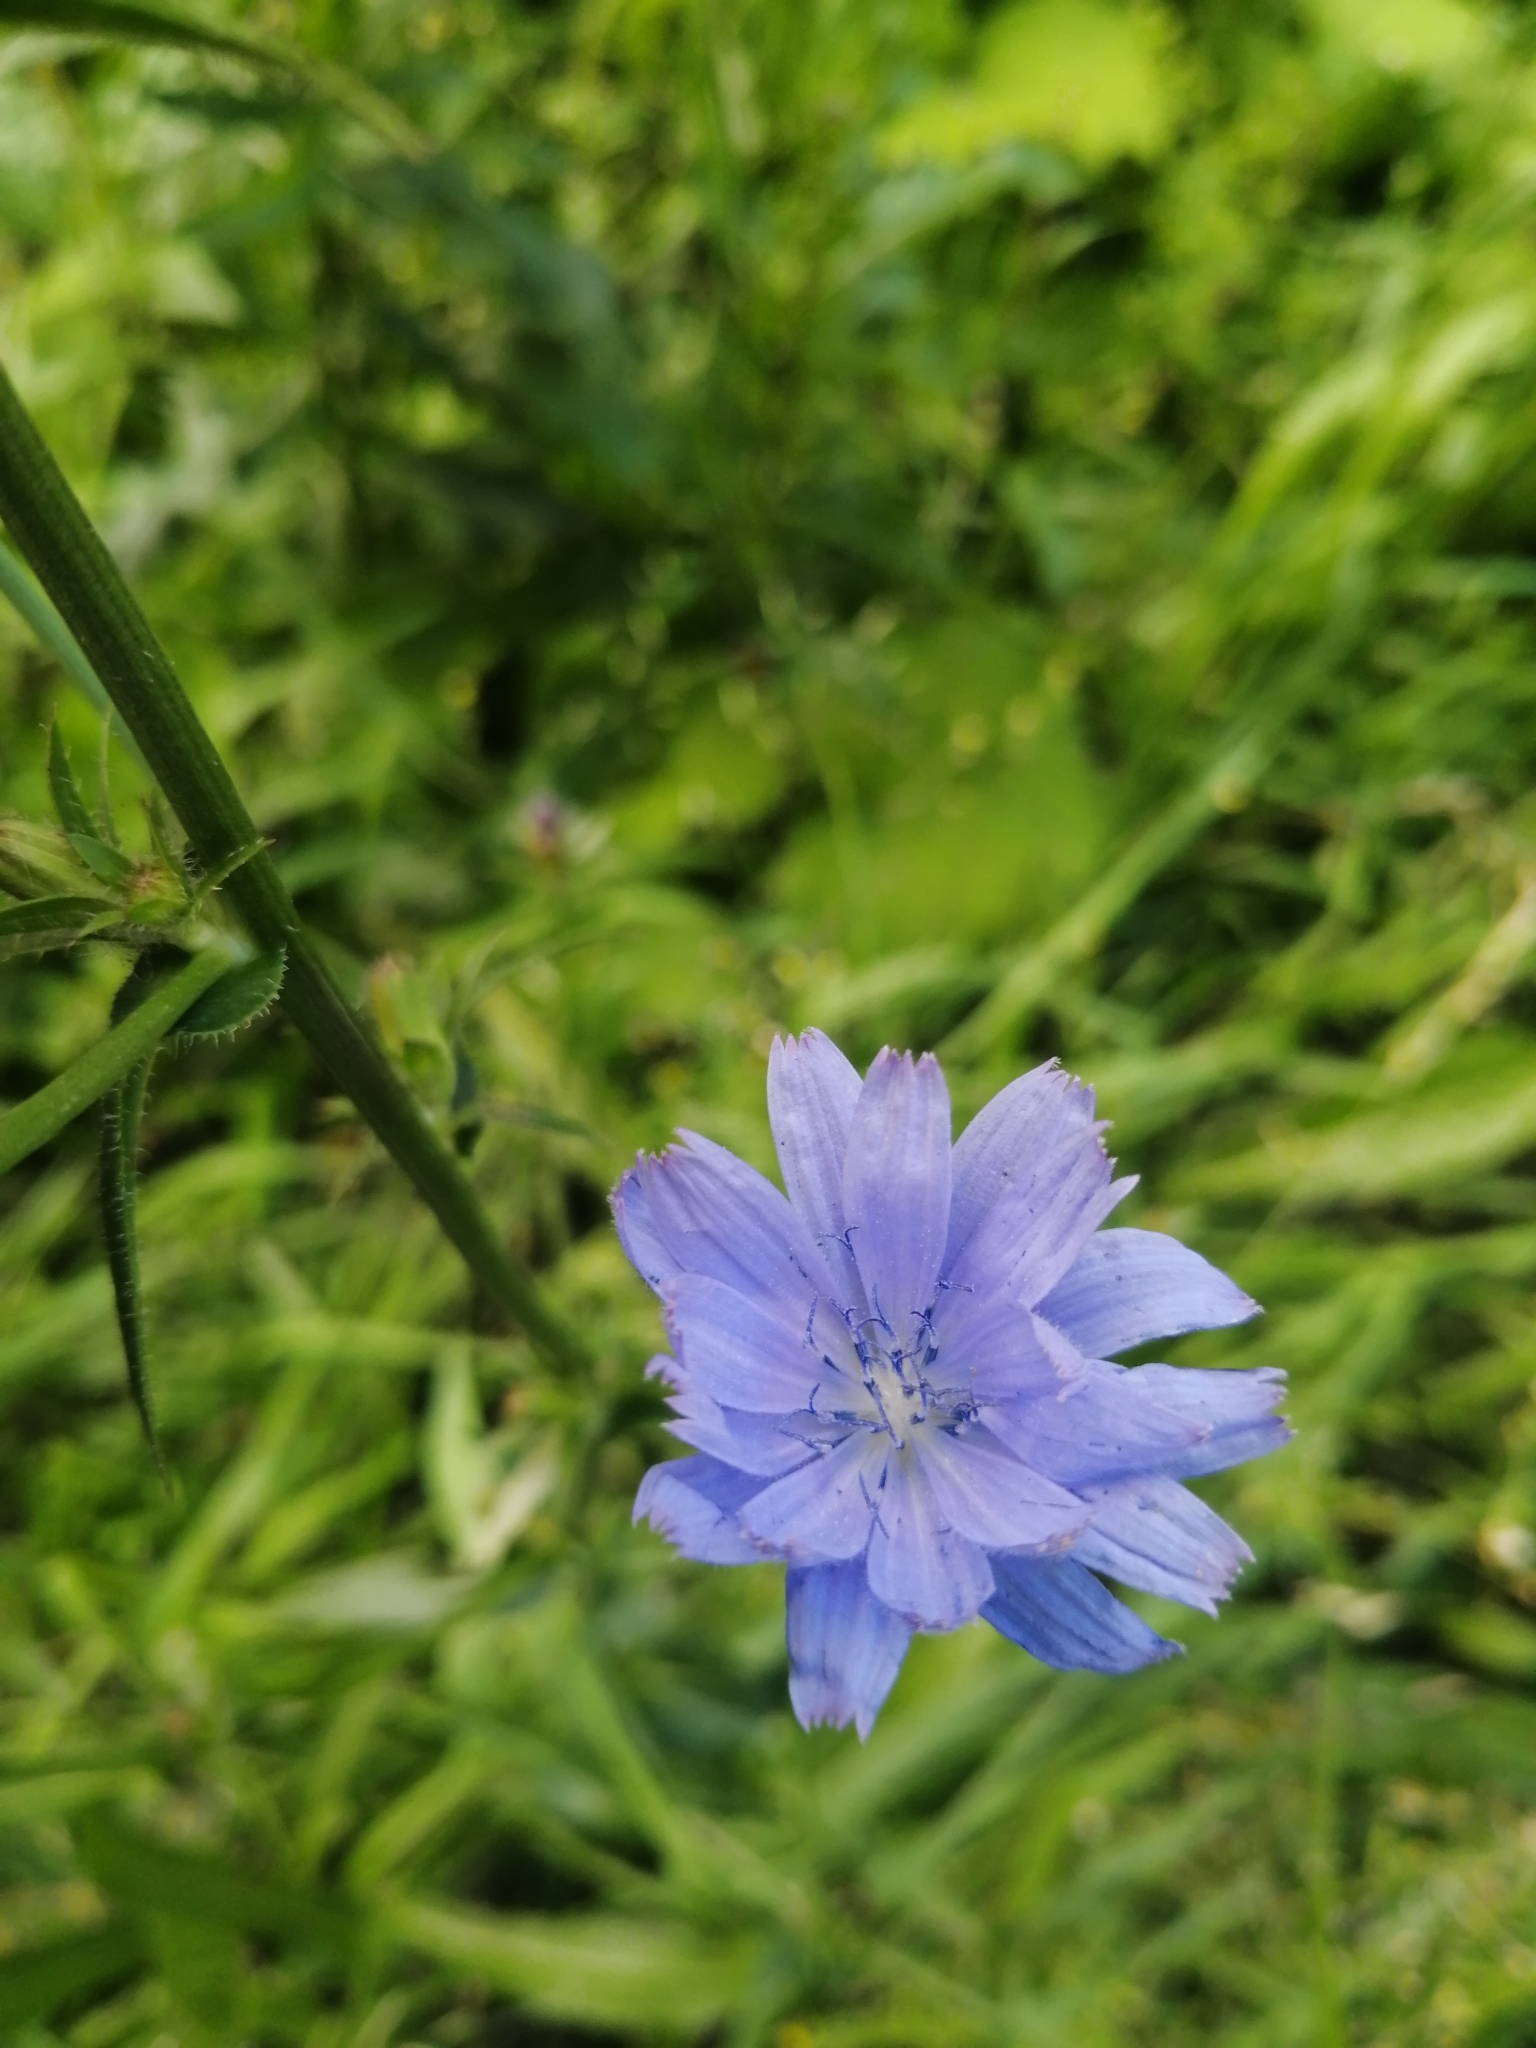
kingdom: Plantae
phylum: Tracheophyta
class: Magnoliopsida
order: Asterales
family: Asteraceae
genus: Cichorium
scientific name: Cichorium intybus
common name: Chicory
